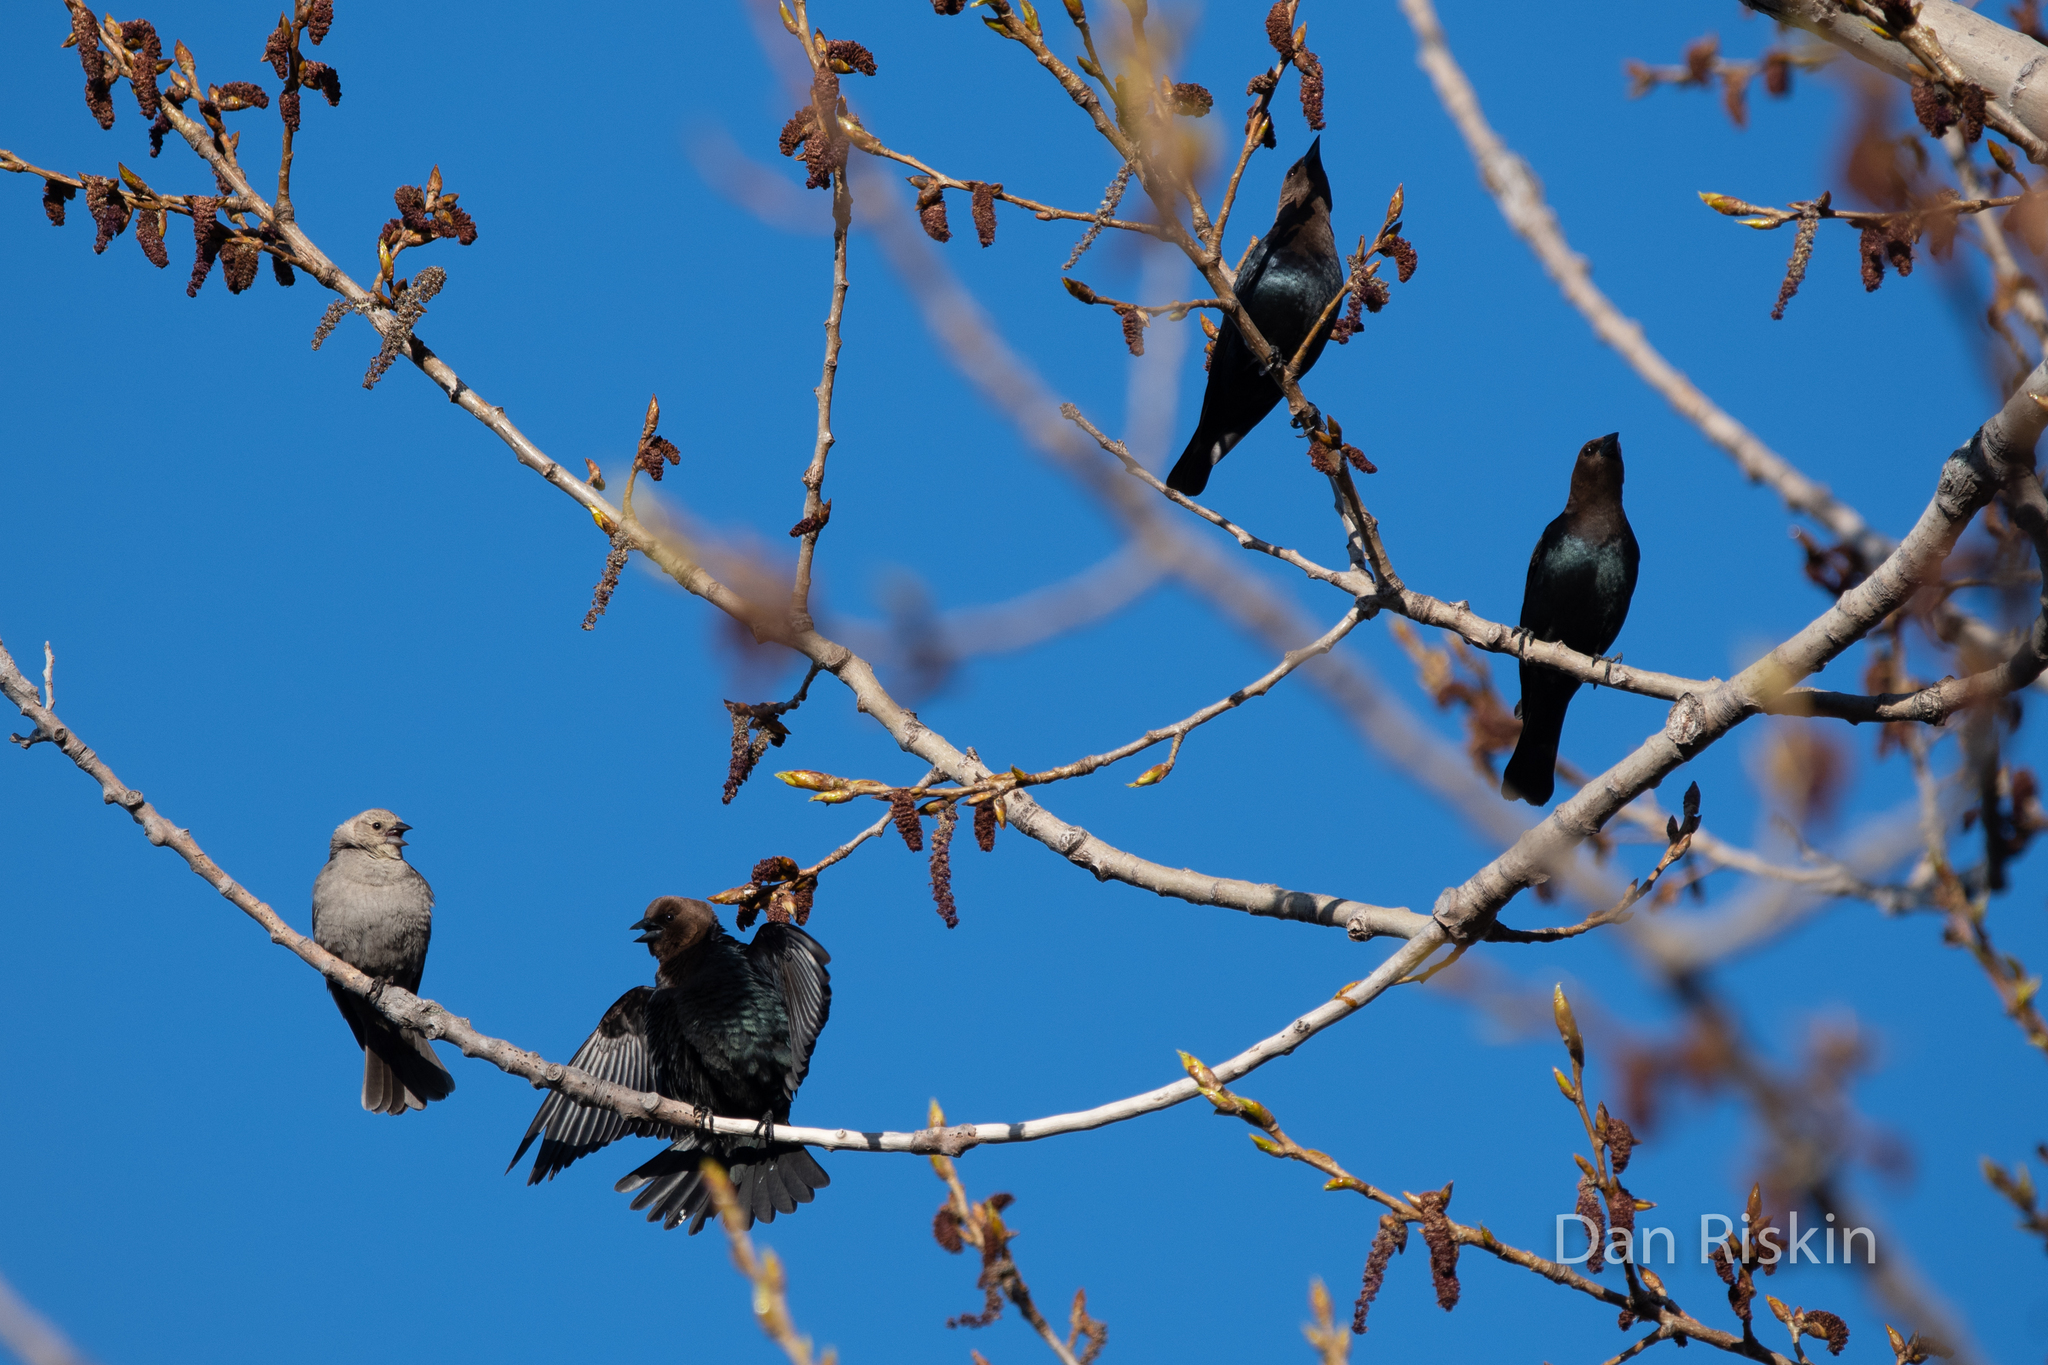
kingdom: Animalia
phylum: Chordata
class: Aves
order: Passeriformes
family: Icteridae
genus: Molothrus
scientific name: Molothrus ater
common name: Brown-headed cowbird
